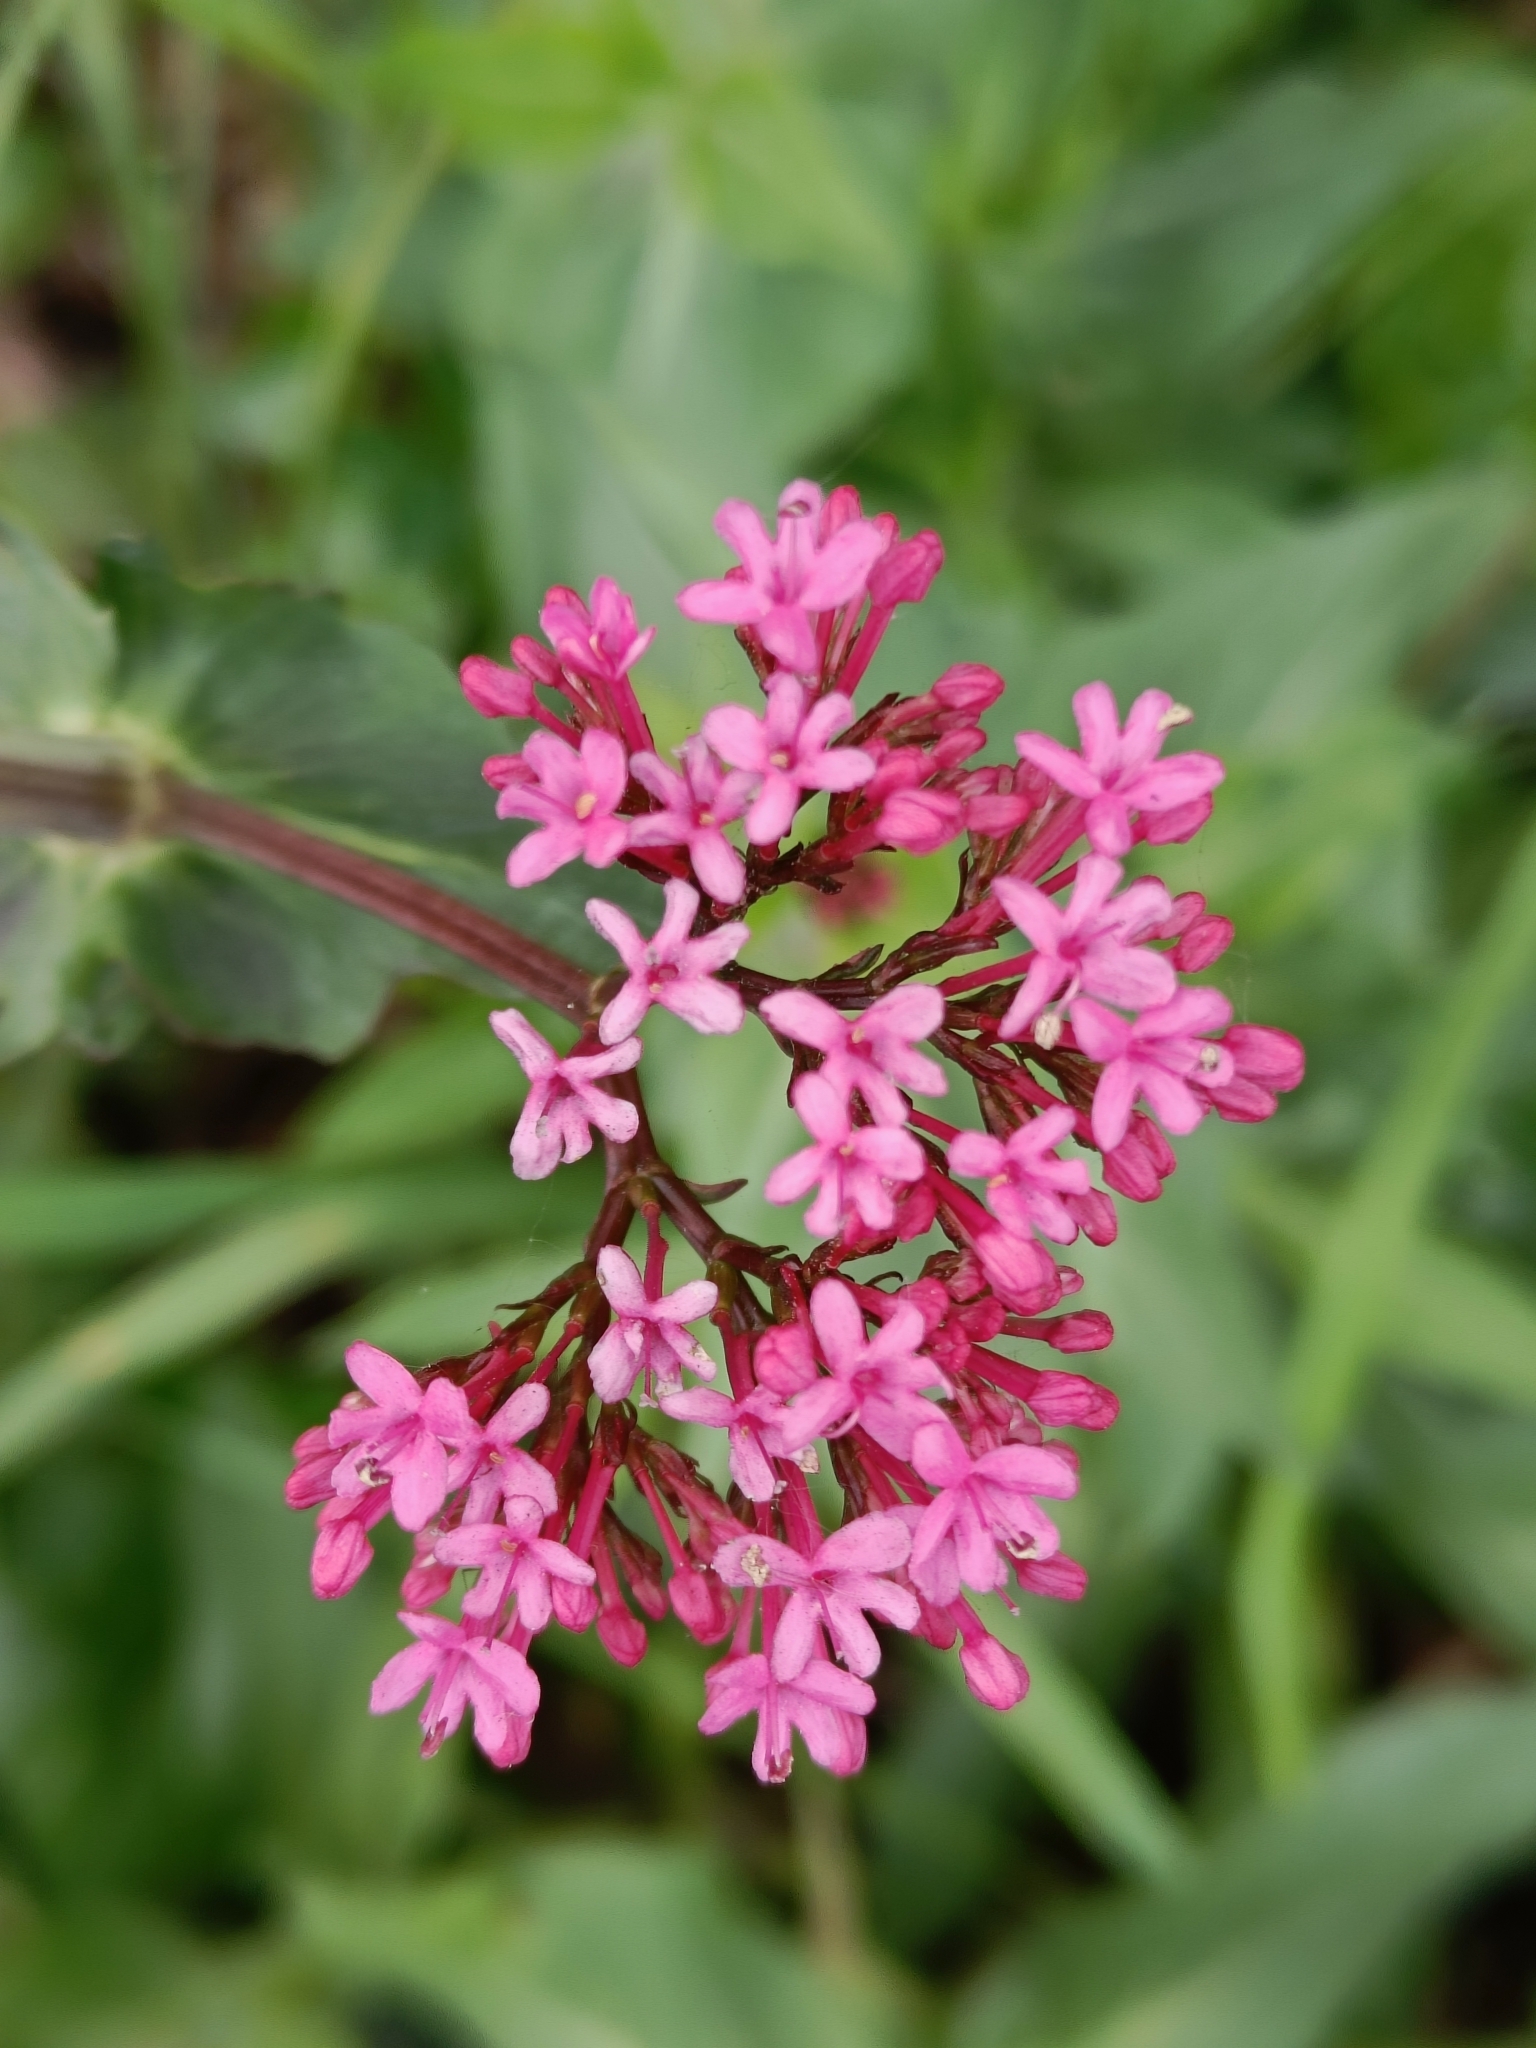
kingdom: Plantae
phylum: Tracheophyta
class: Magnoliopsida
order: Dipsacales
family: Caprifoliaceae
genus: Centranthus
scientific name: Centranthus ruber
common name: Red valerian
